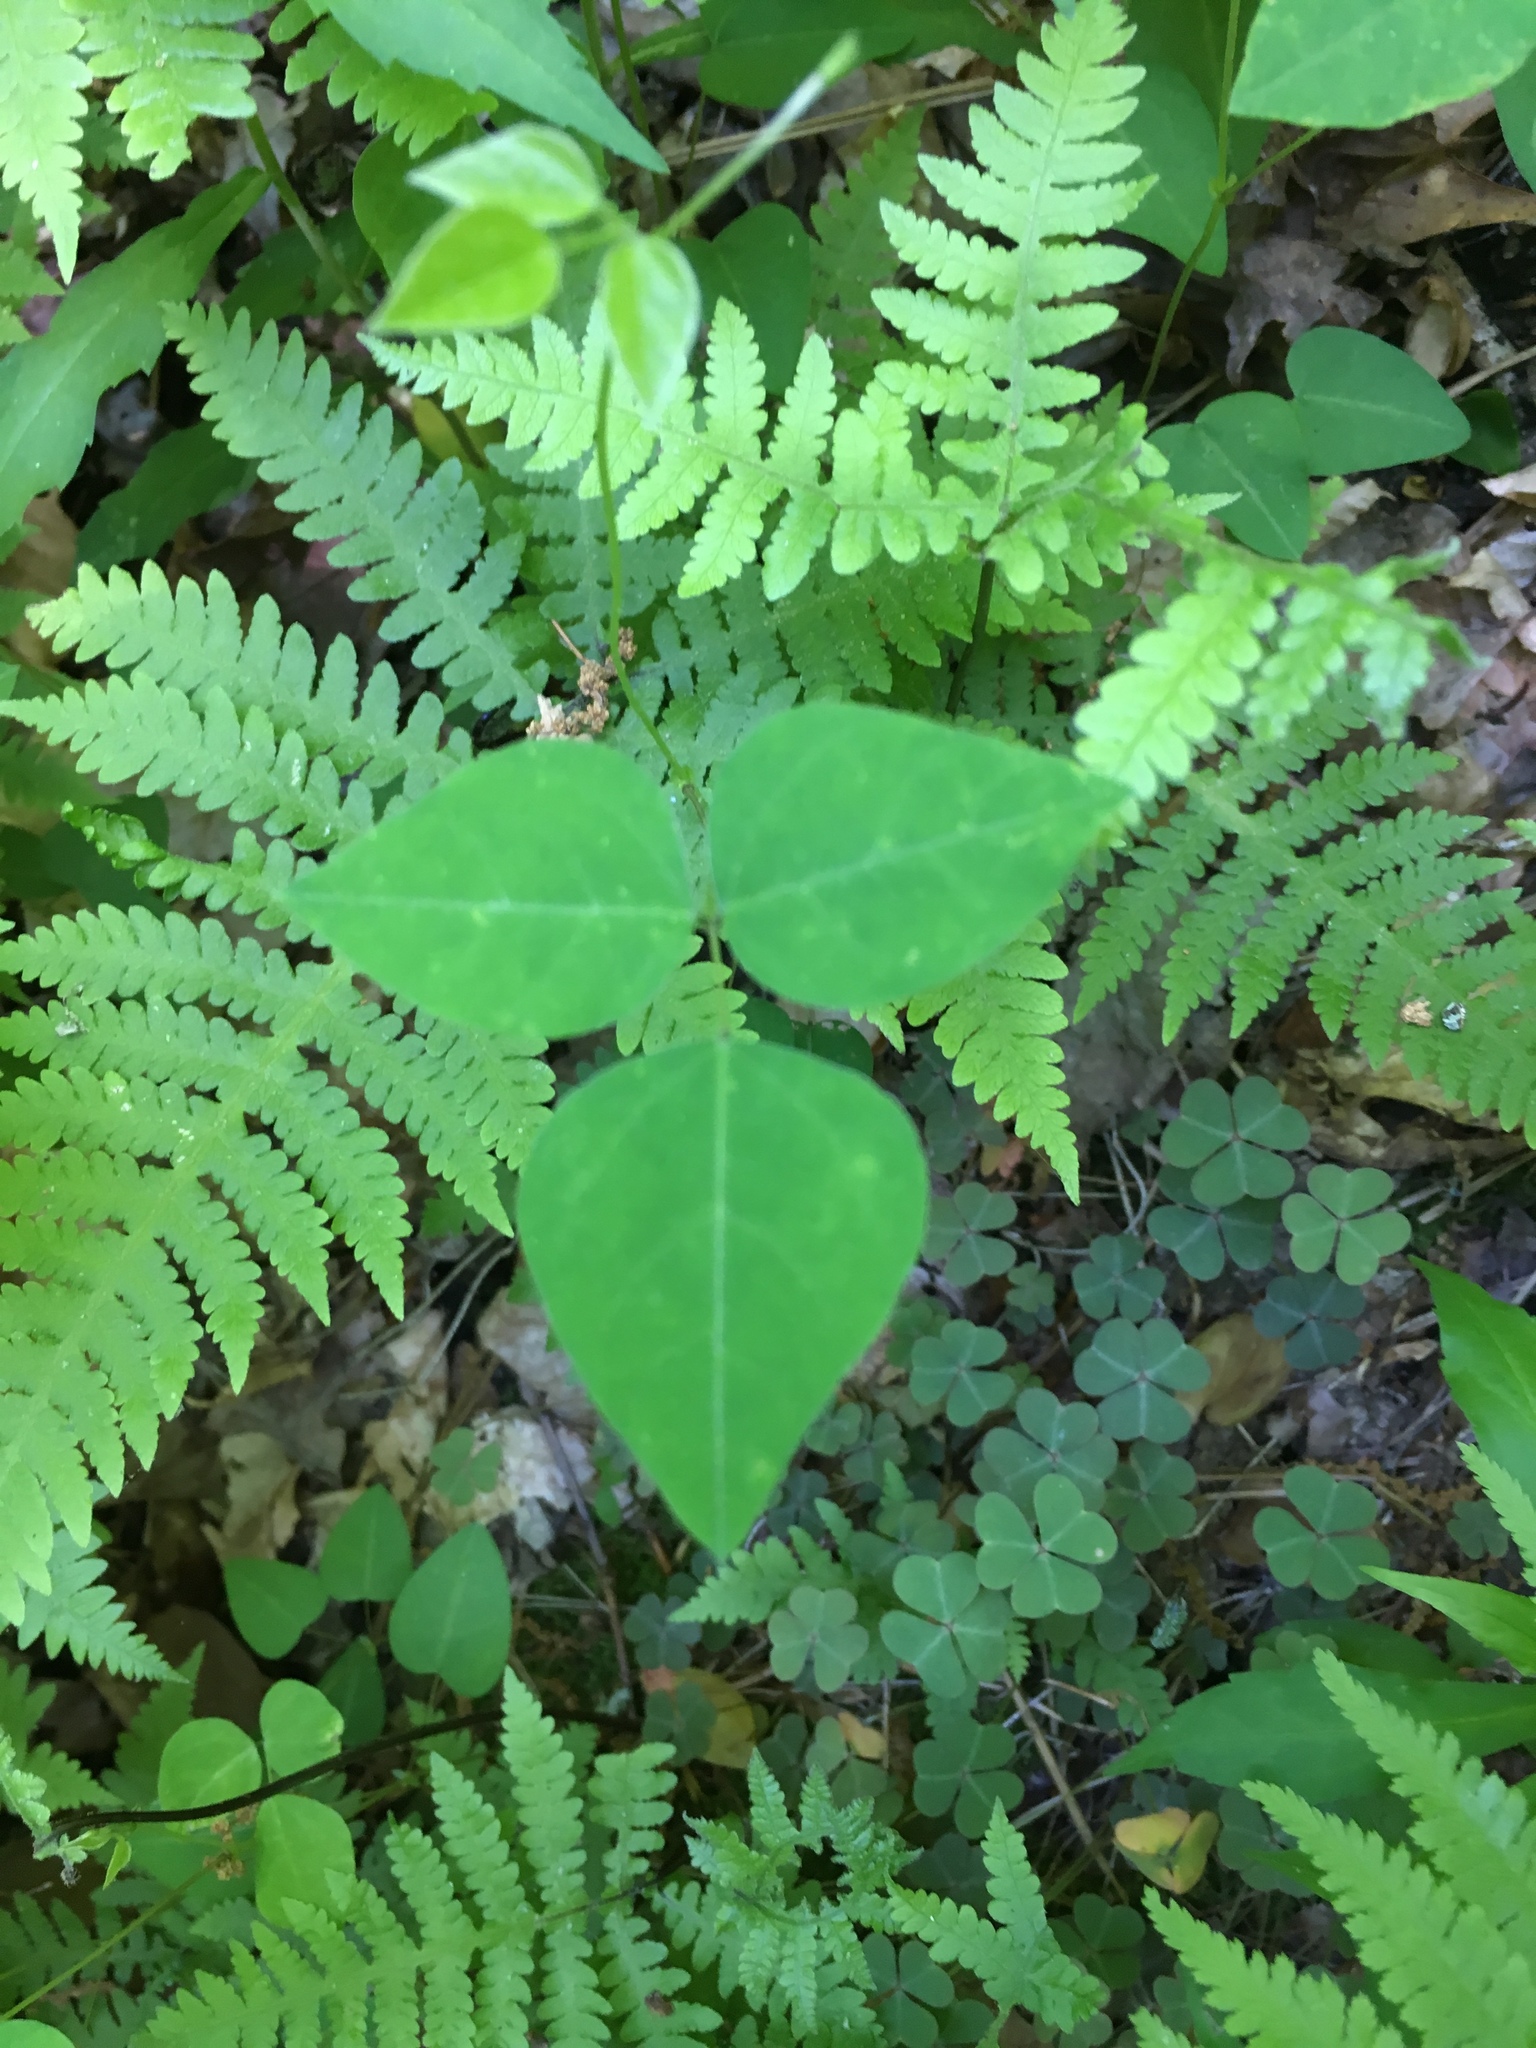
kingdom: Plantae
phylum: Tracheophyta
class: Magnoliopsida
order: Fabales
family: Fabaceae
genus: Amphicarpaea
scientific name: Amphicarpaea bracteata
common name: American hog peanut
